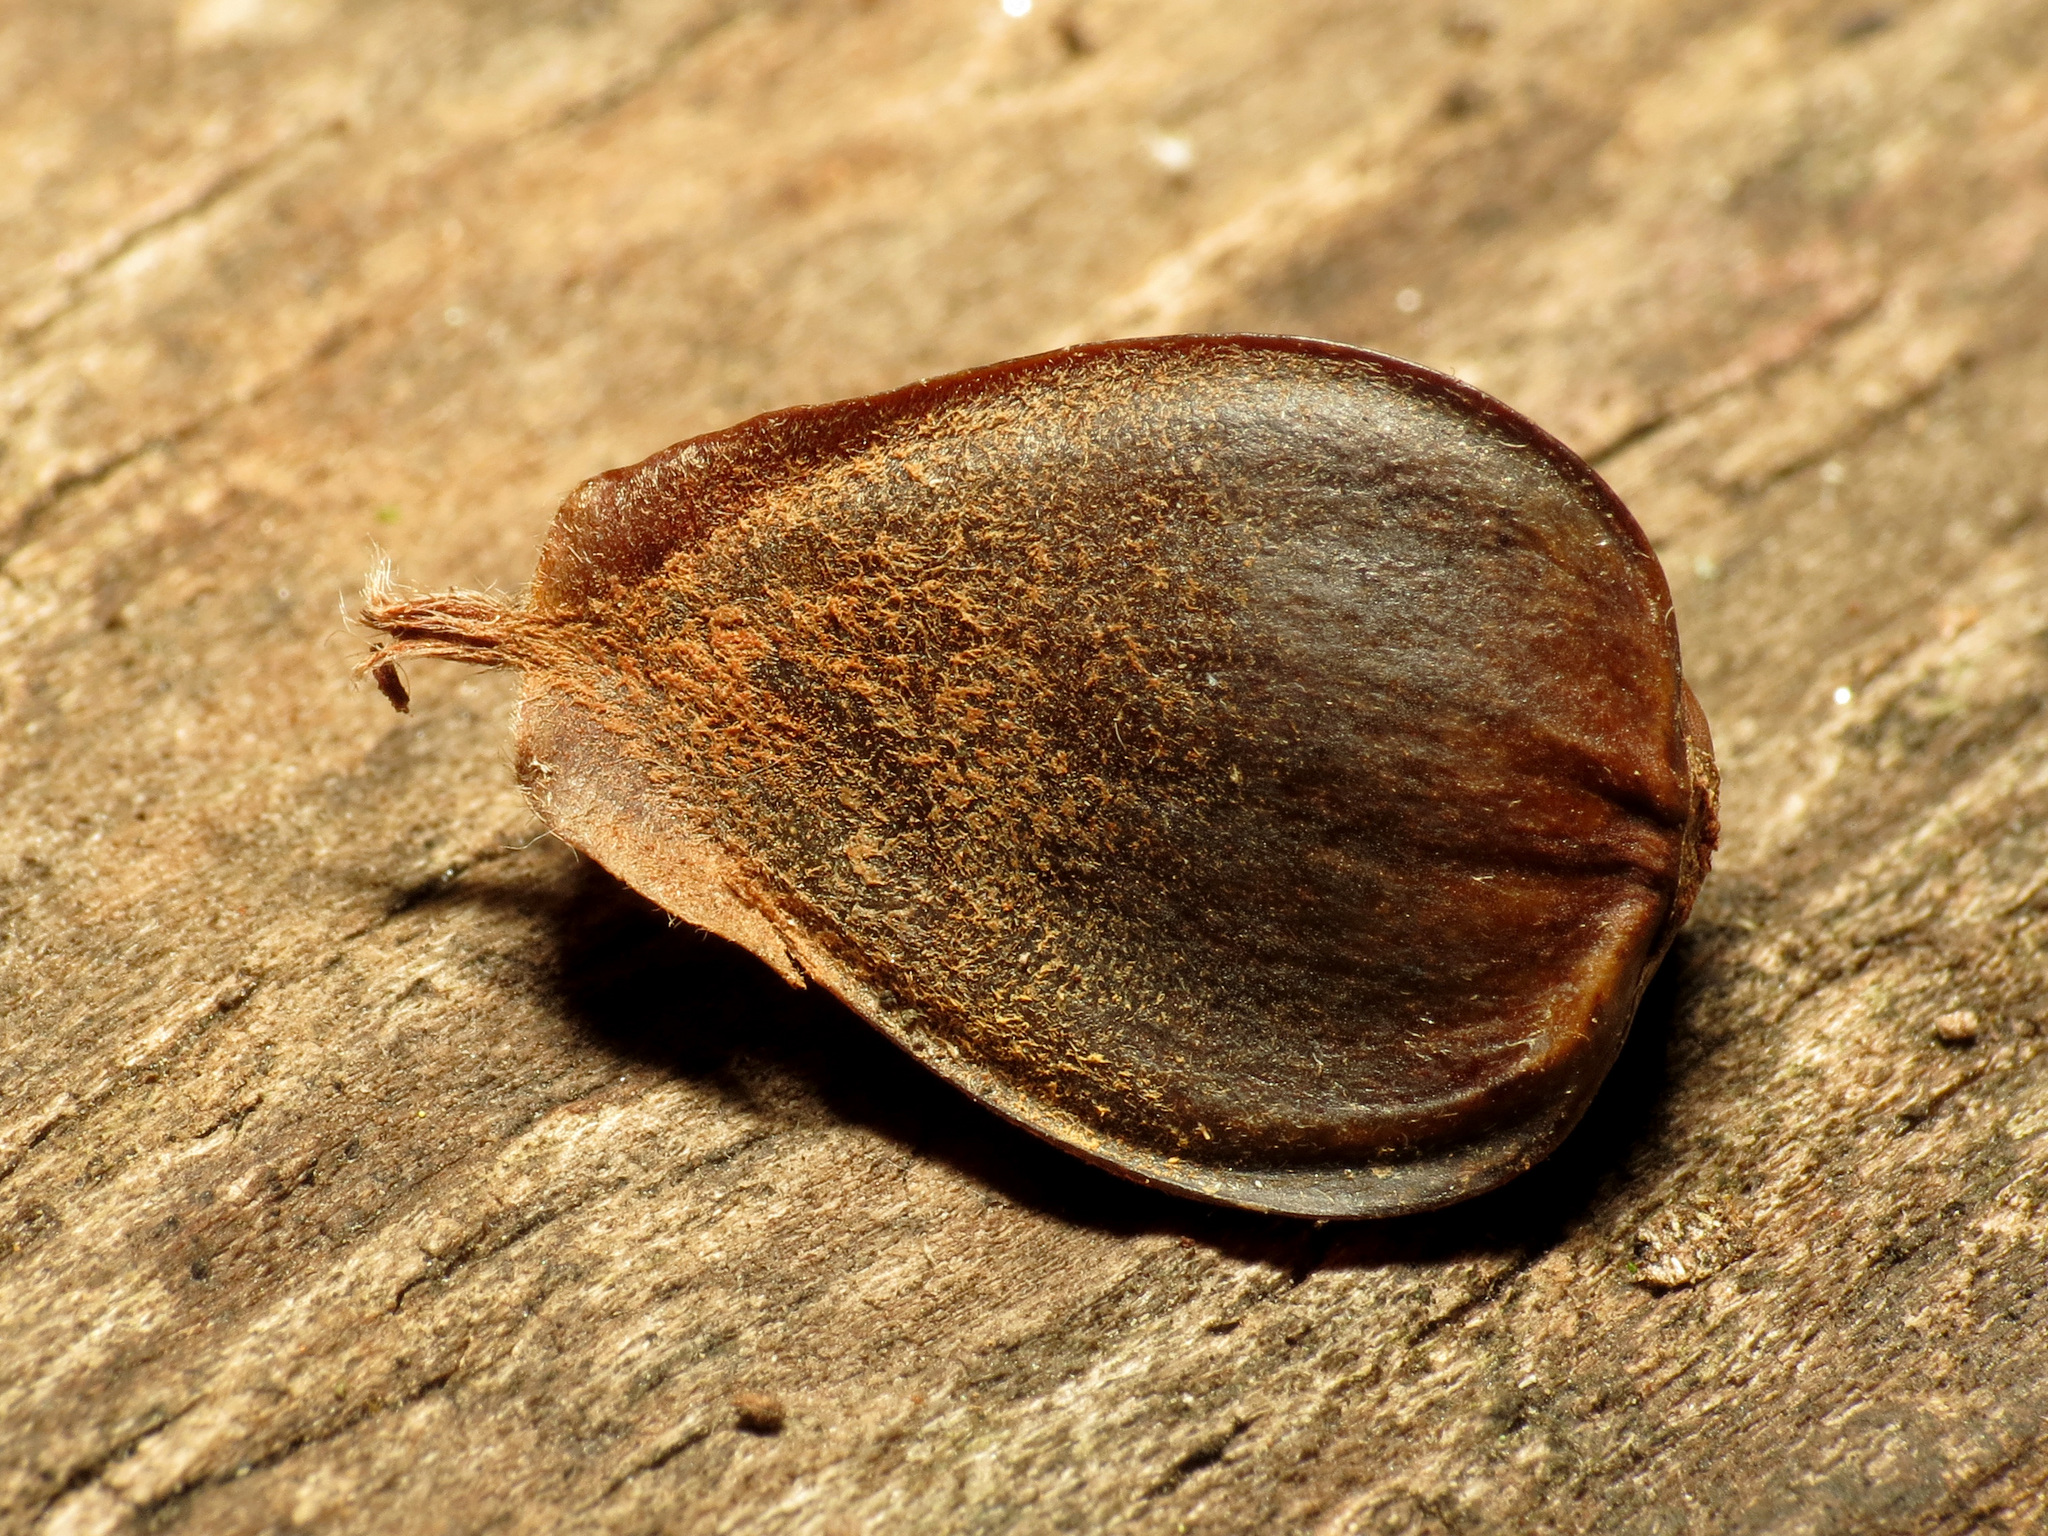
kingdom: Plantae
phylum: Tracheophyta
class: Magnoliopsida
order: Fagales
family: Fagaceae
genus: Fagus
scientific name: Fagus grandifolia
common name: American beech
